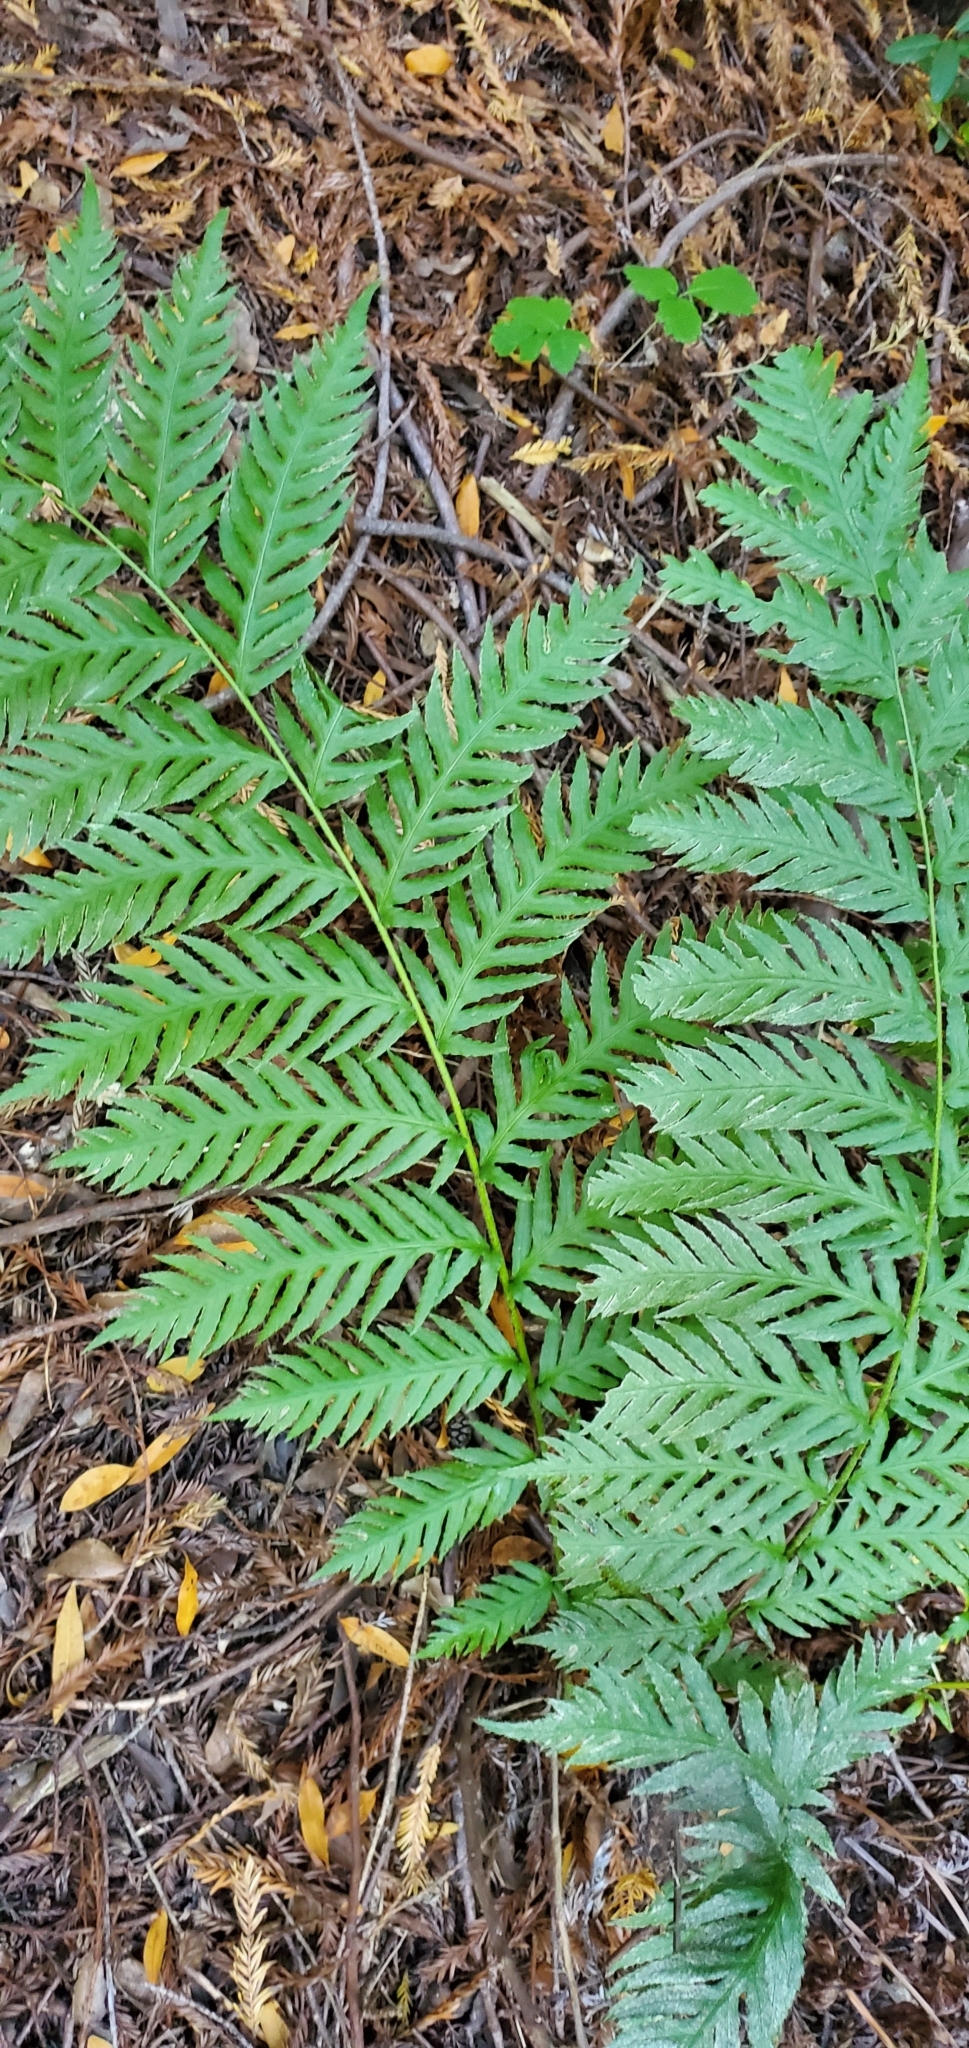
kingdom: Plantae
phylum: Tracheophyta
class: Polypodiopsida
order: Polypodiales
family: Blechnaceae
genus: Woodwardia
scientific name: Woodwardia fimbriata
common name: Giant chain fern
